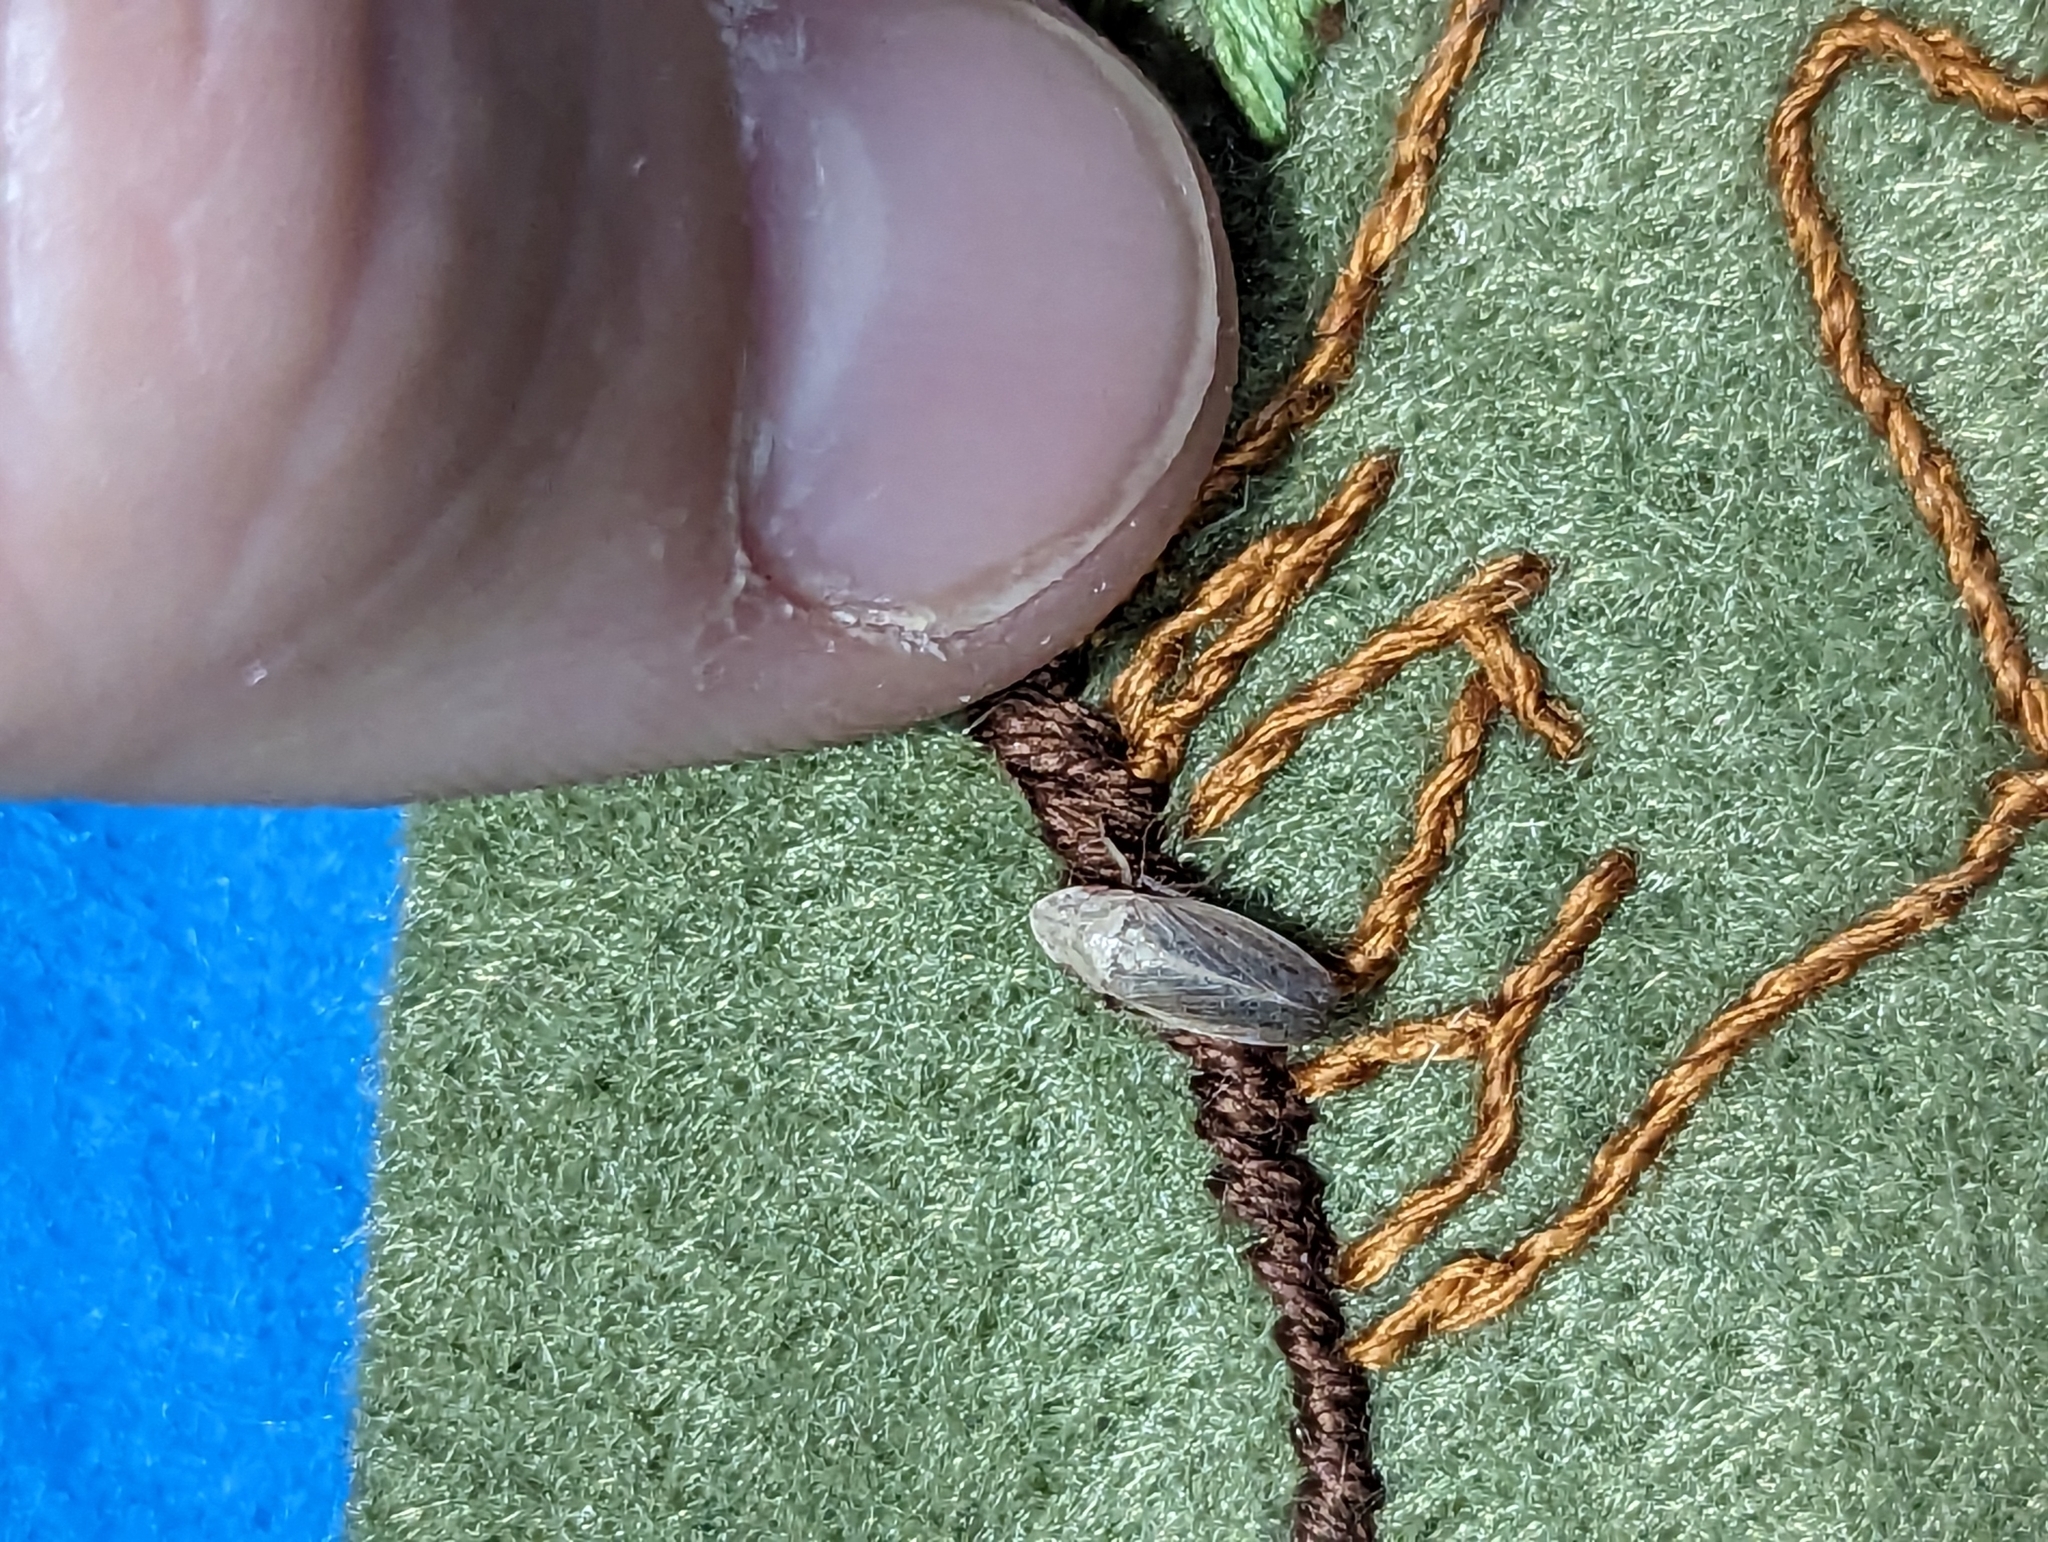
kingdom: Animalia
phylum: Arthropoda
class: Insecta
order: Hemiptera
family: Cicadellidae
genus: Prairiana
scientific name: Prairiana sidana
